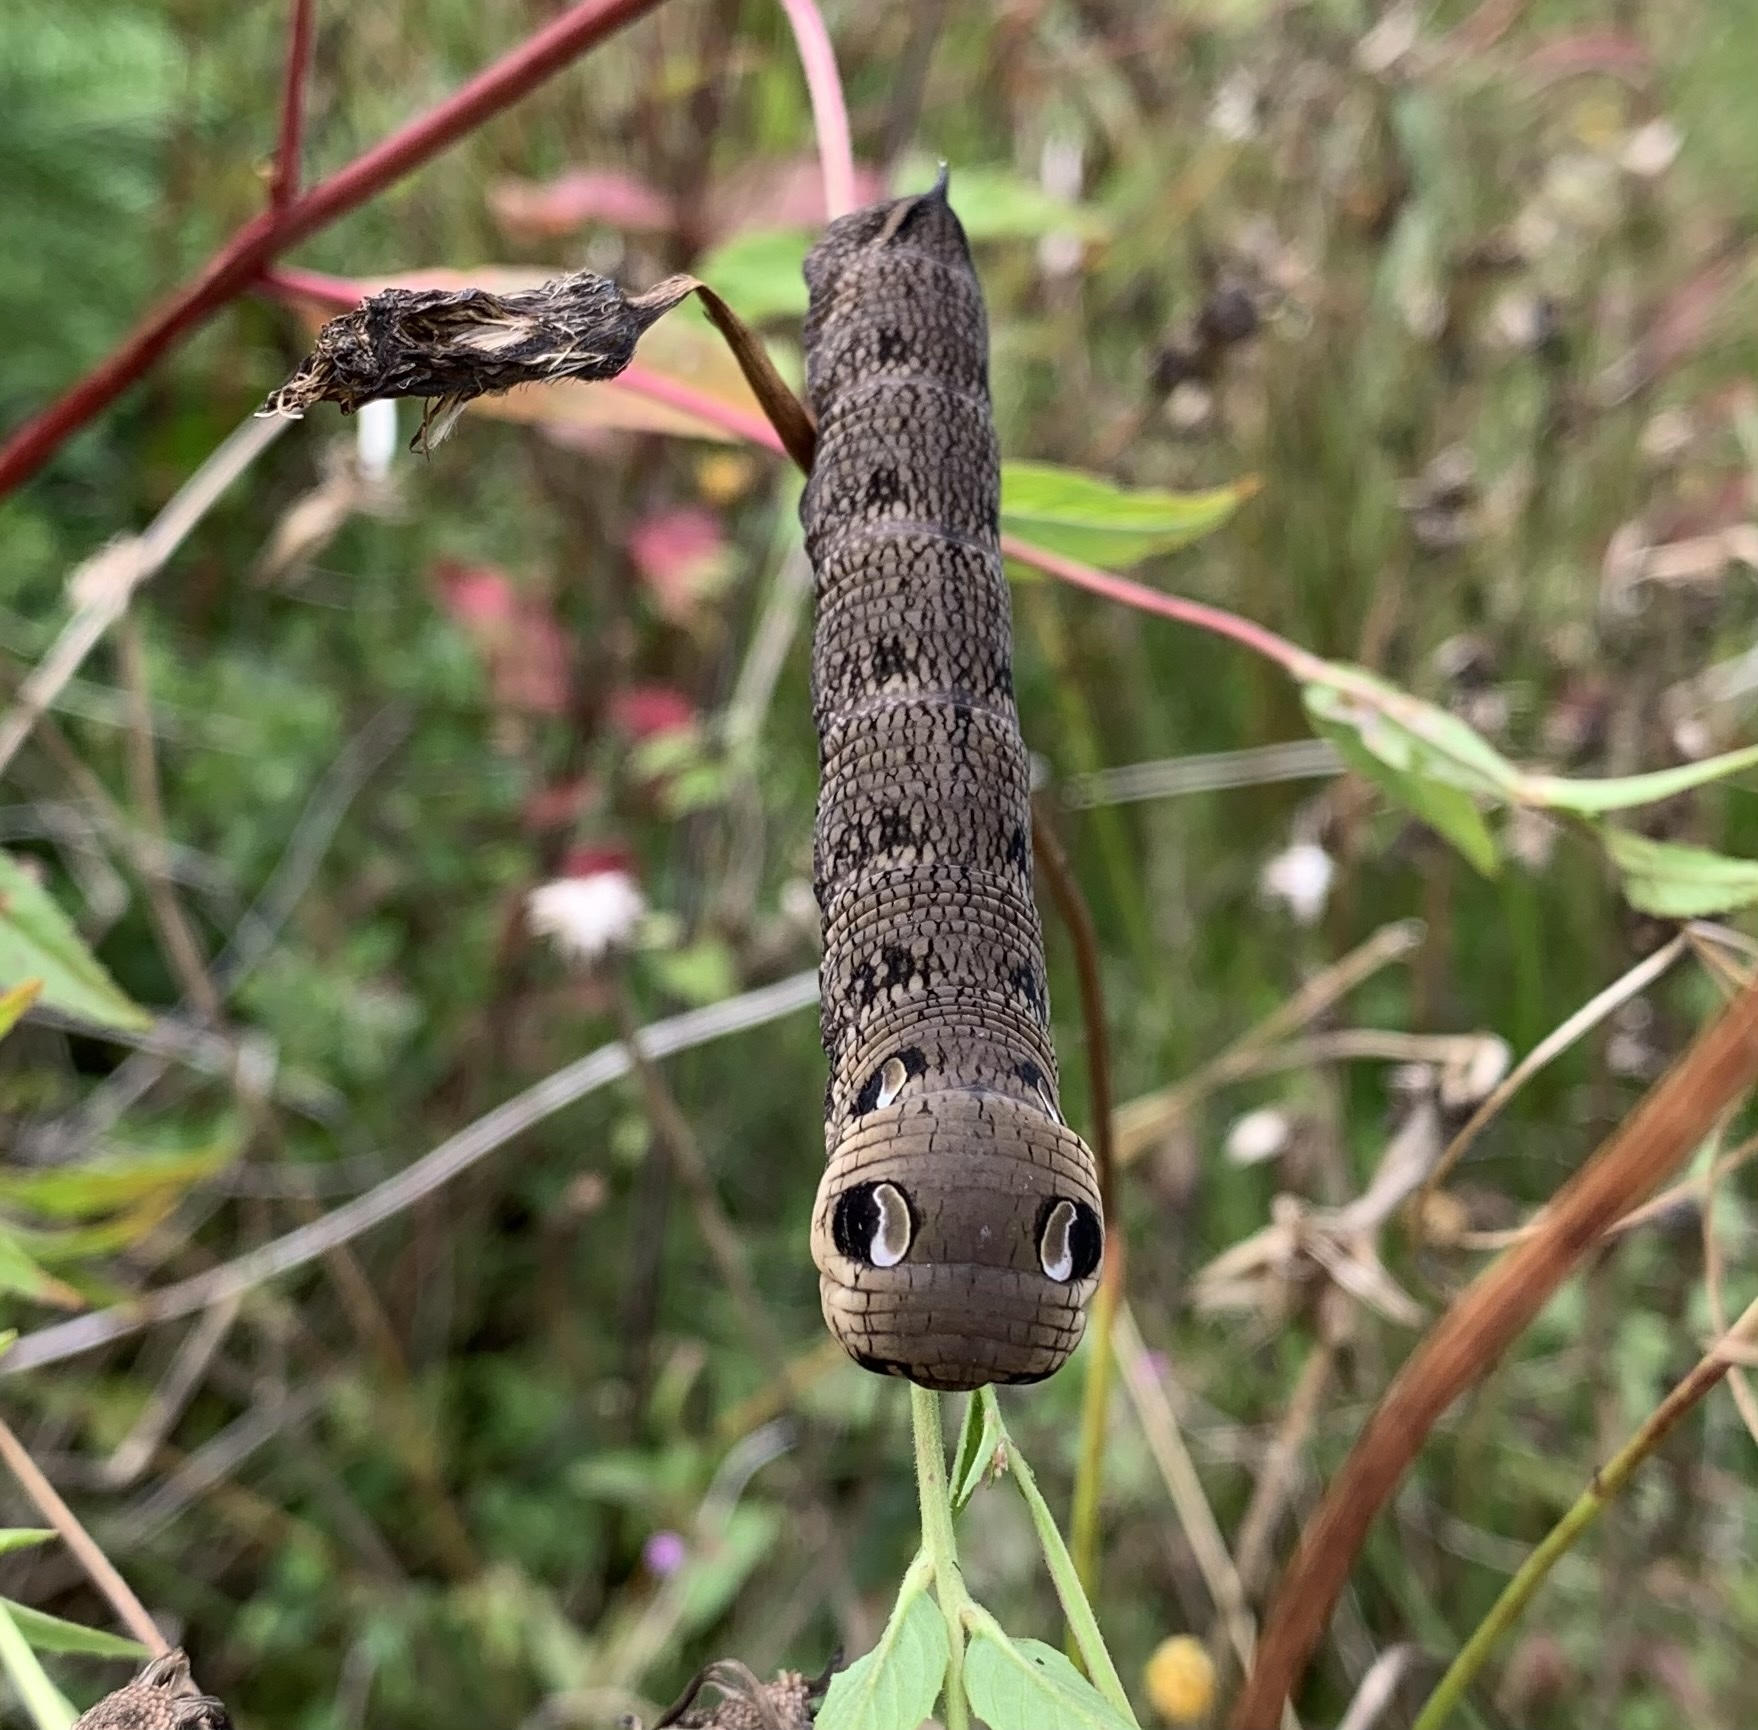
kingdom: Animalia
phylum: Arthropoda
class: Insecta
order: Lepidoptera
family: Sphingidae
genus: Deilephila
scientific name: Deilephila elpenor
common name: Elephant hawk-moth
